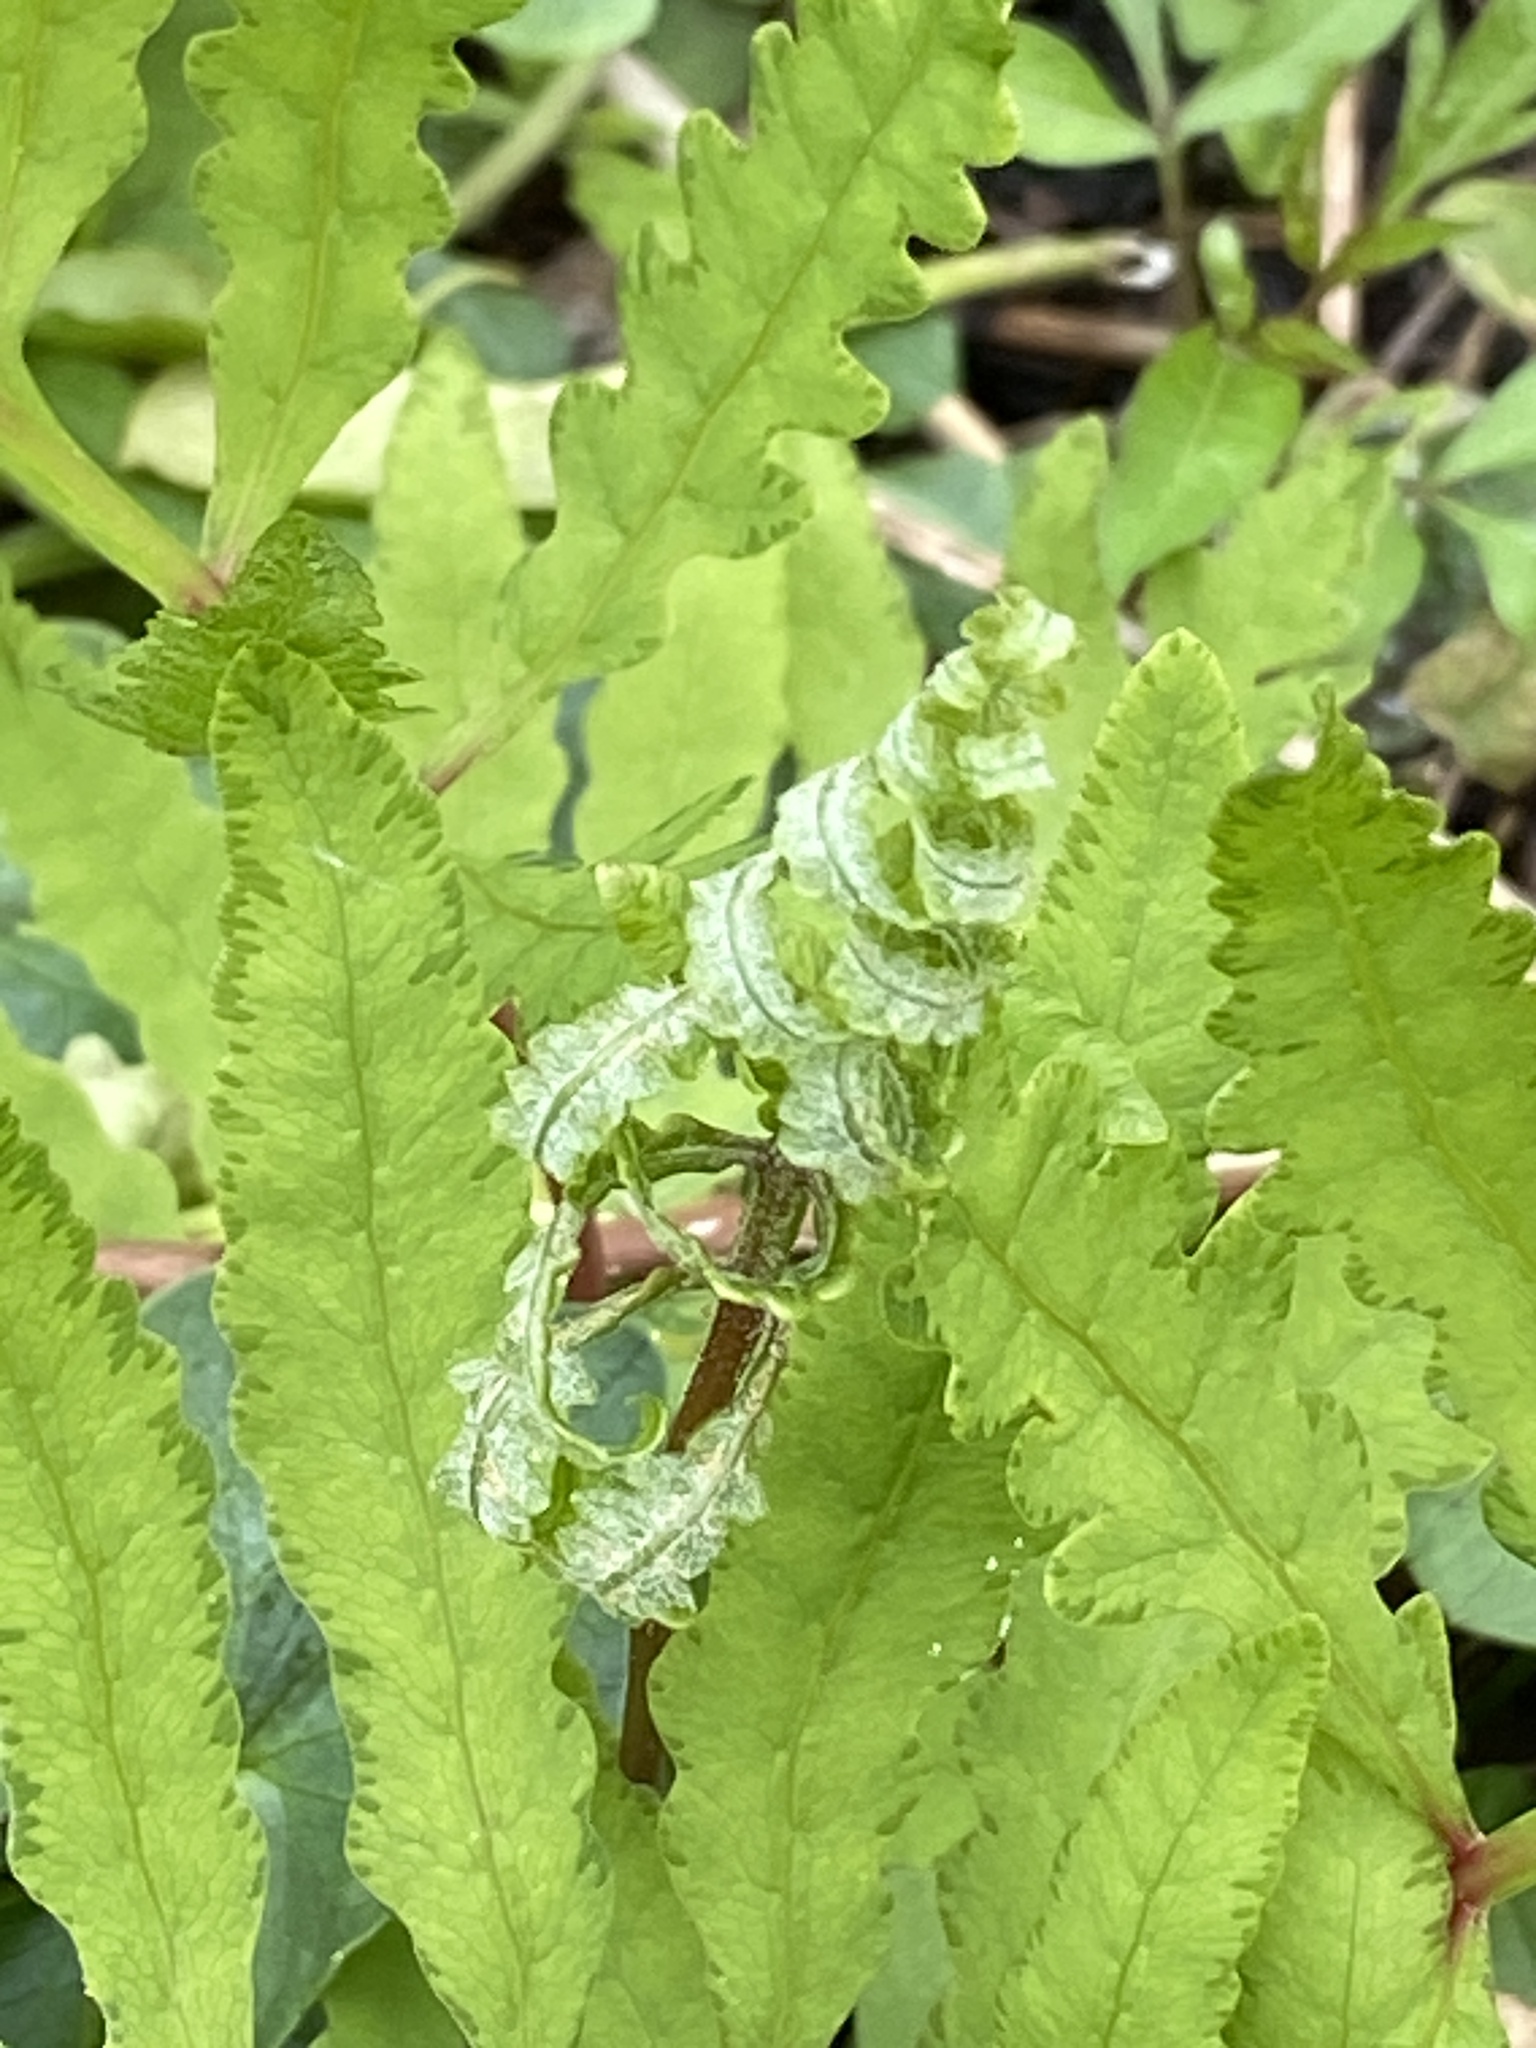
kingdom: Plantae
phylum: Tracheophyta
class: Polypodiopsida
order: Polypodiales
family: Onocleaceae
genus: Onoclea
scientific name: Onoclea sensibilis
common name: Sensitive fern
